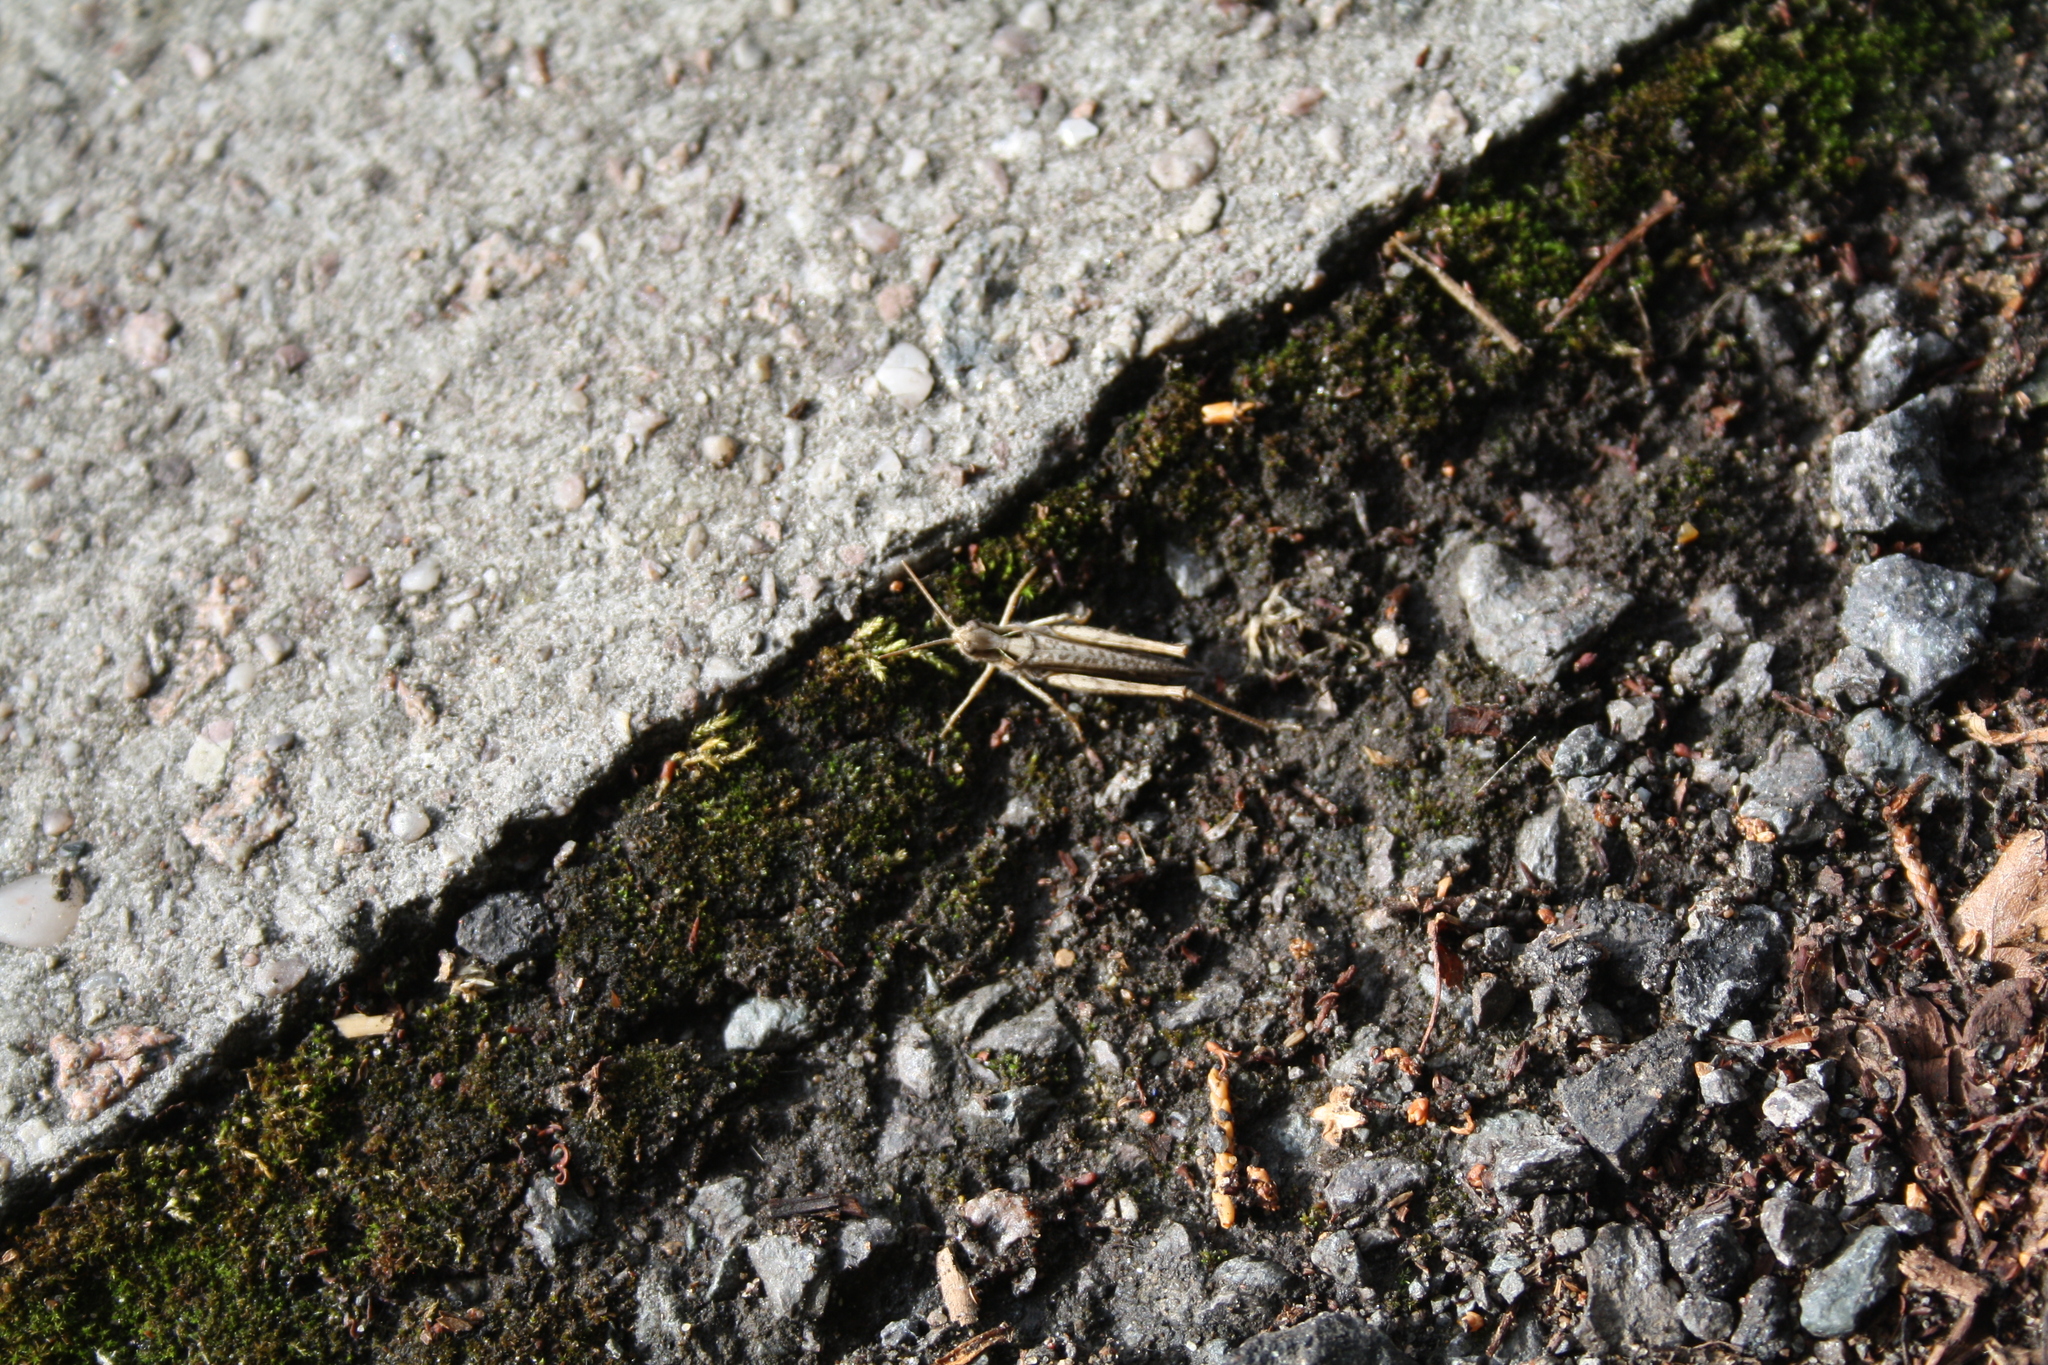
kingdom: Animalia
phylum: Arthropoda
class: Insecta
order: Orthoptera
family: Acrididae
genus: Chorthippus
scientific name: Chorthippus brunneus
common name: Field grasshopper
